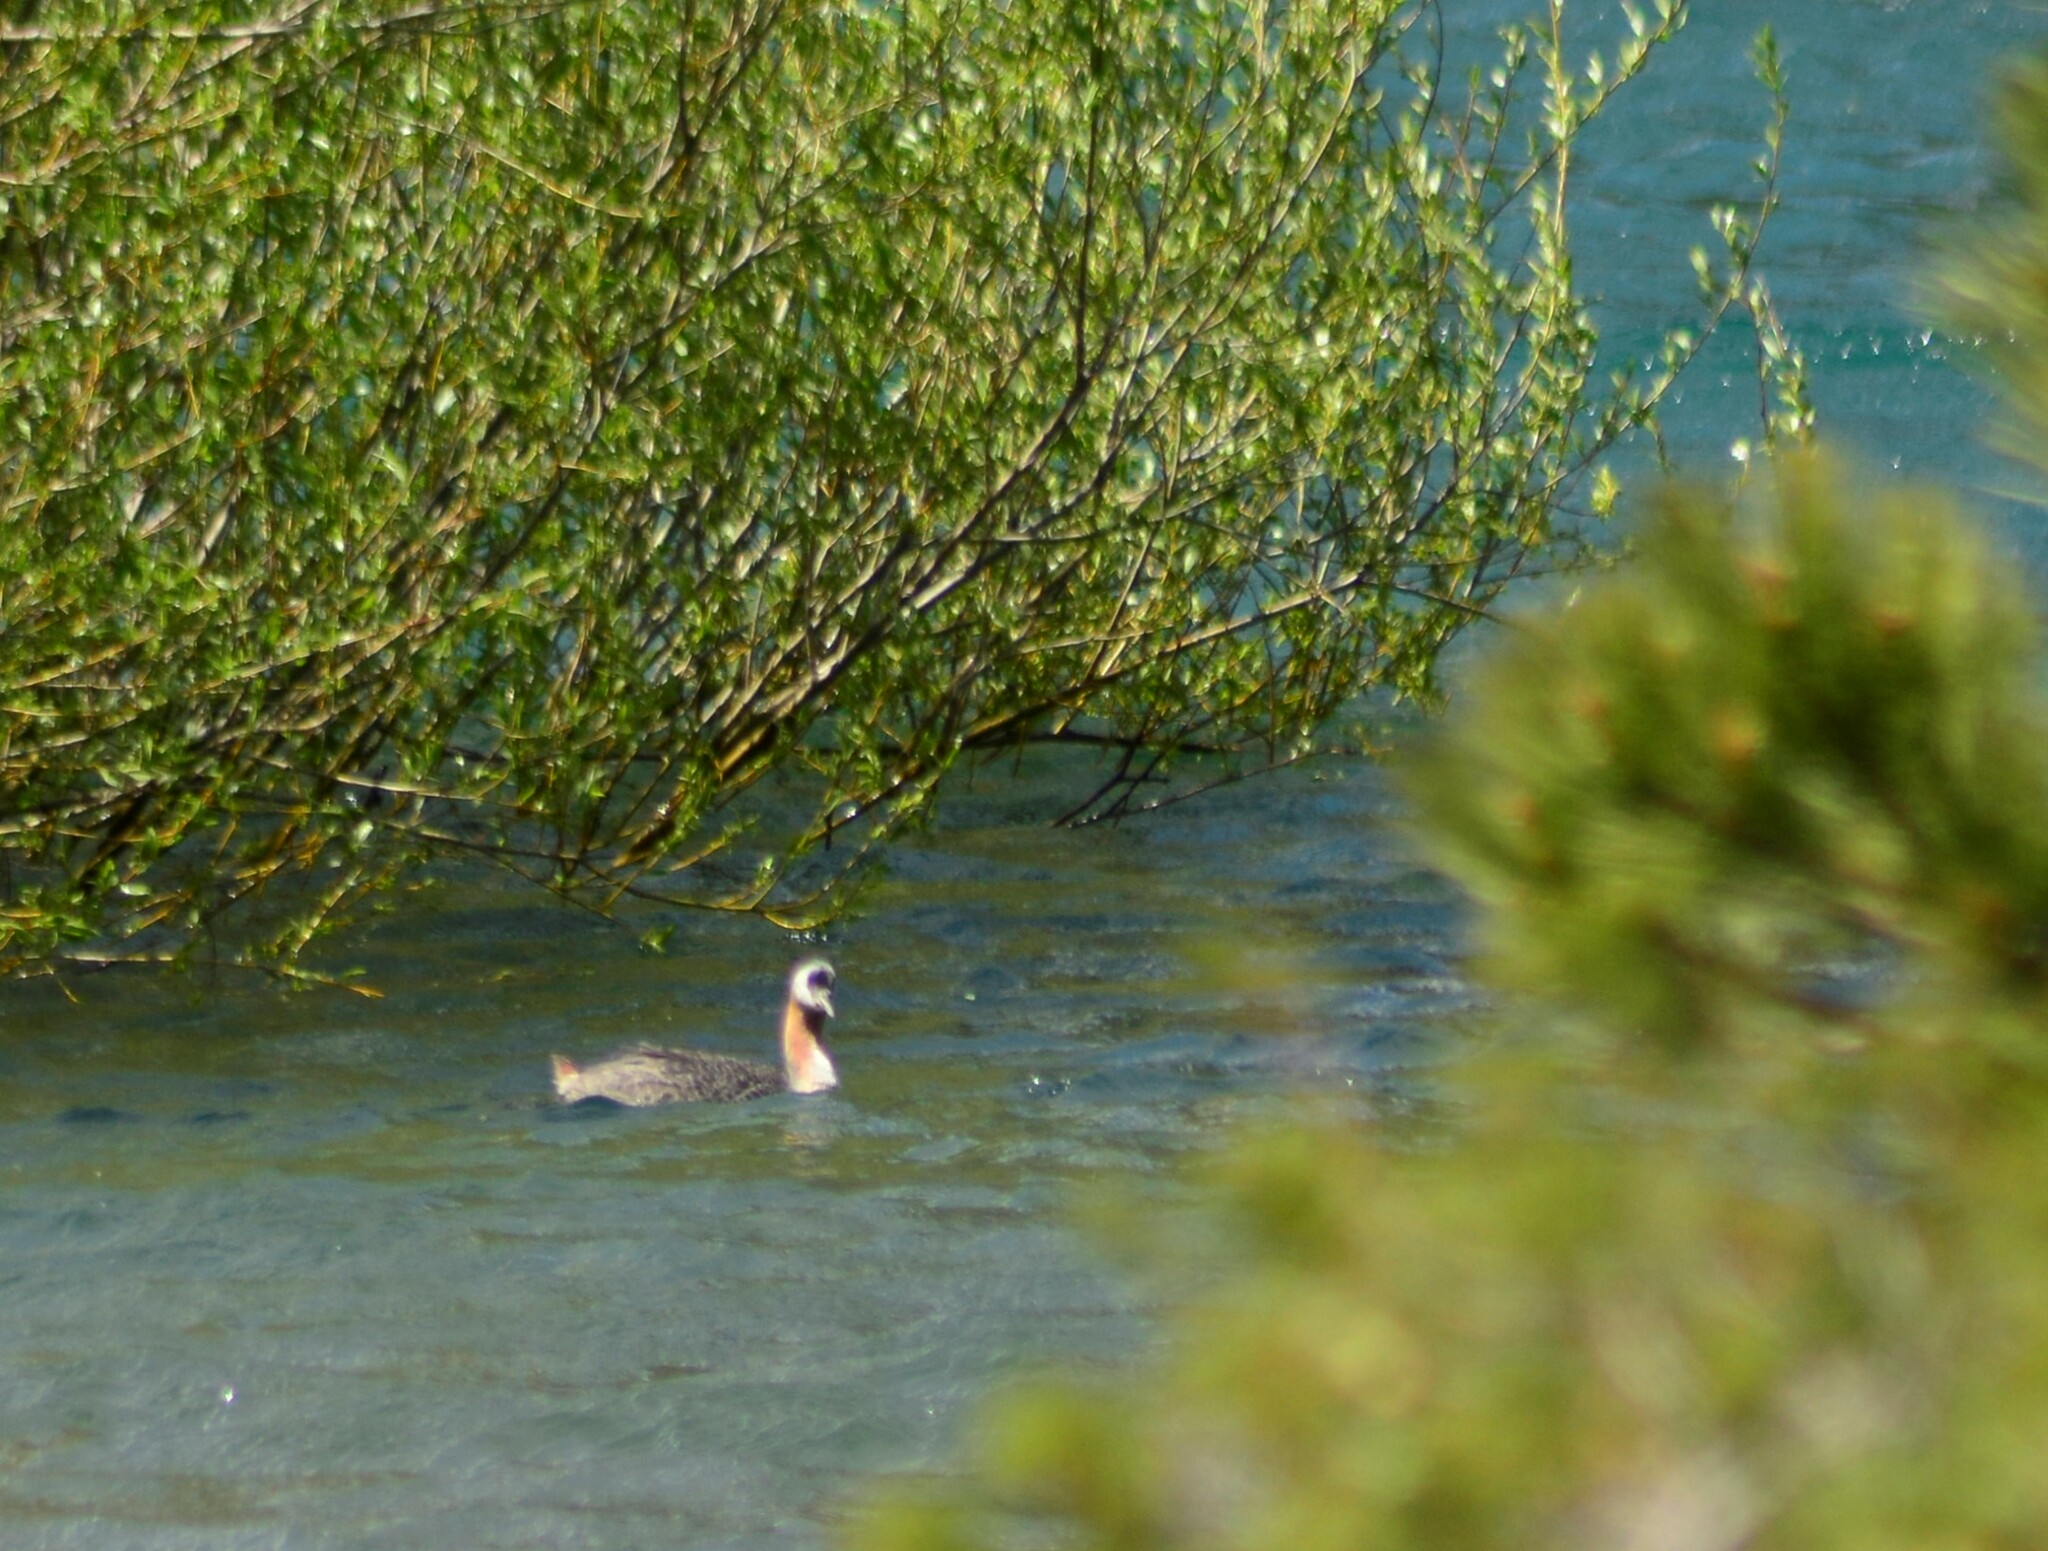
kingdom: Animalia
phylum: Chordata
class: Aves
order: Podicipediformes
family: Podicipedidae
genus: Podiceps
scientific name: Podiceps major
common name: Great grebe
